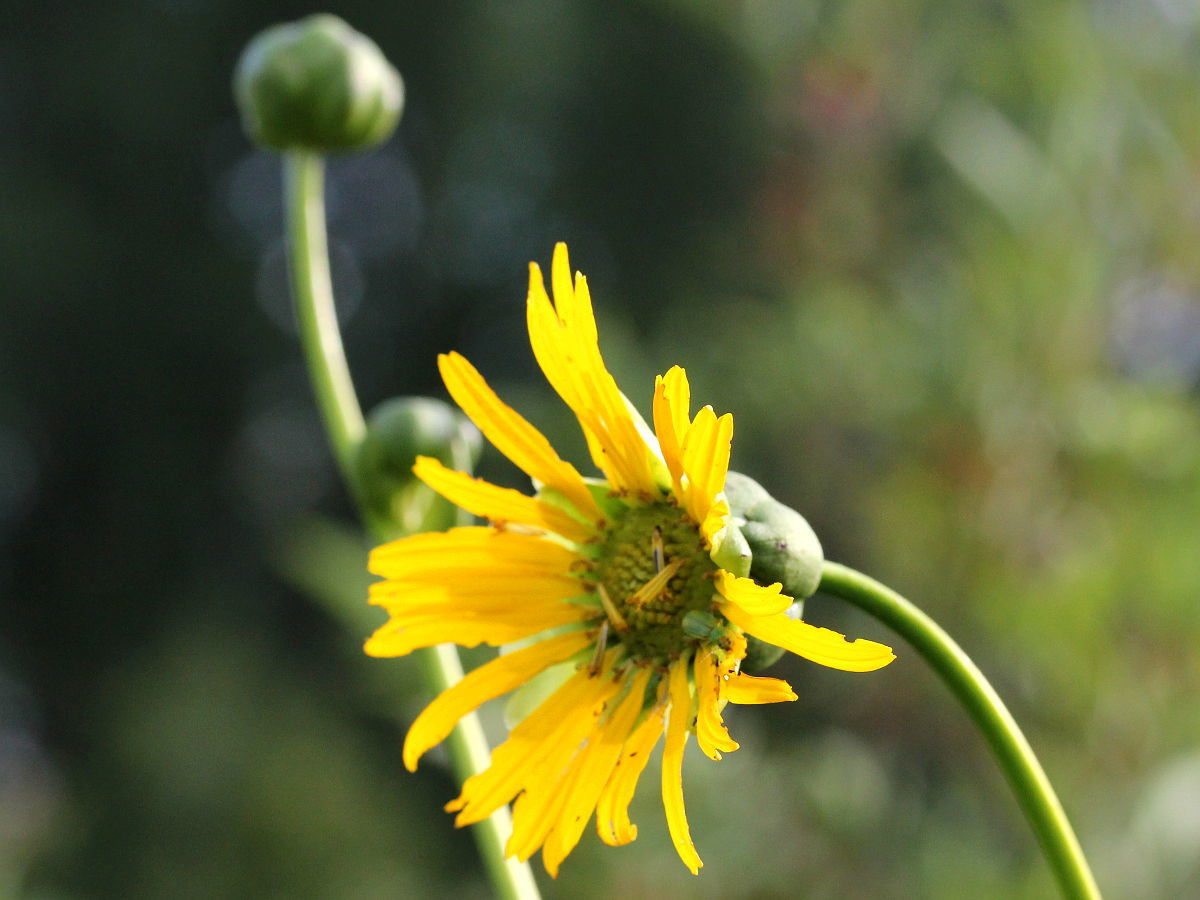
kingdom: Plantae
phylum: Tracheophyta
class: Magnoliopsida
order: Asterales
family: Asteraceae
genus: Silphium
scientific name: Silphium terebinthinaceum
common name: Basal-leaf rosinweed
